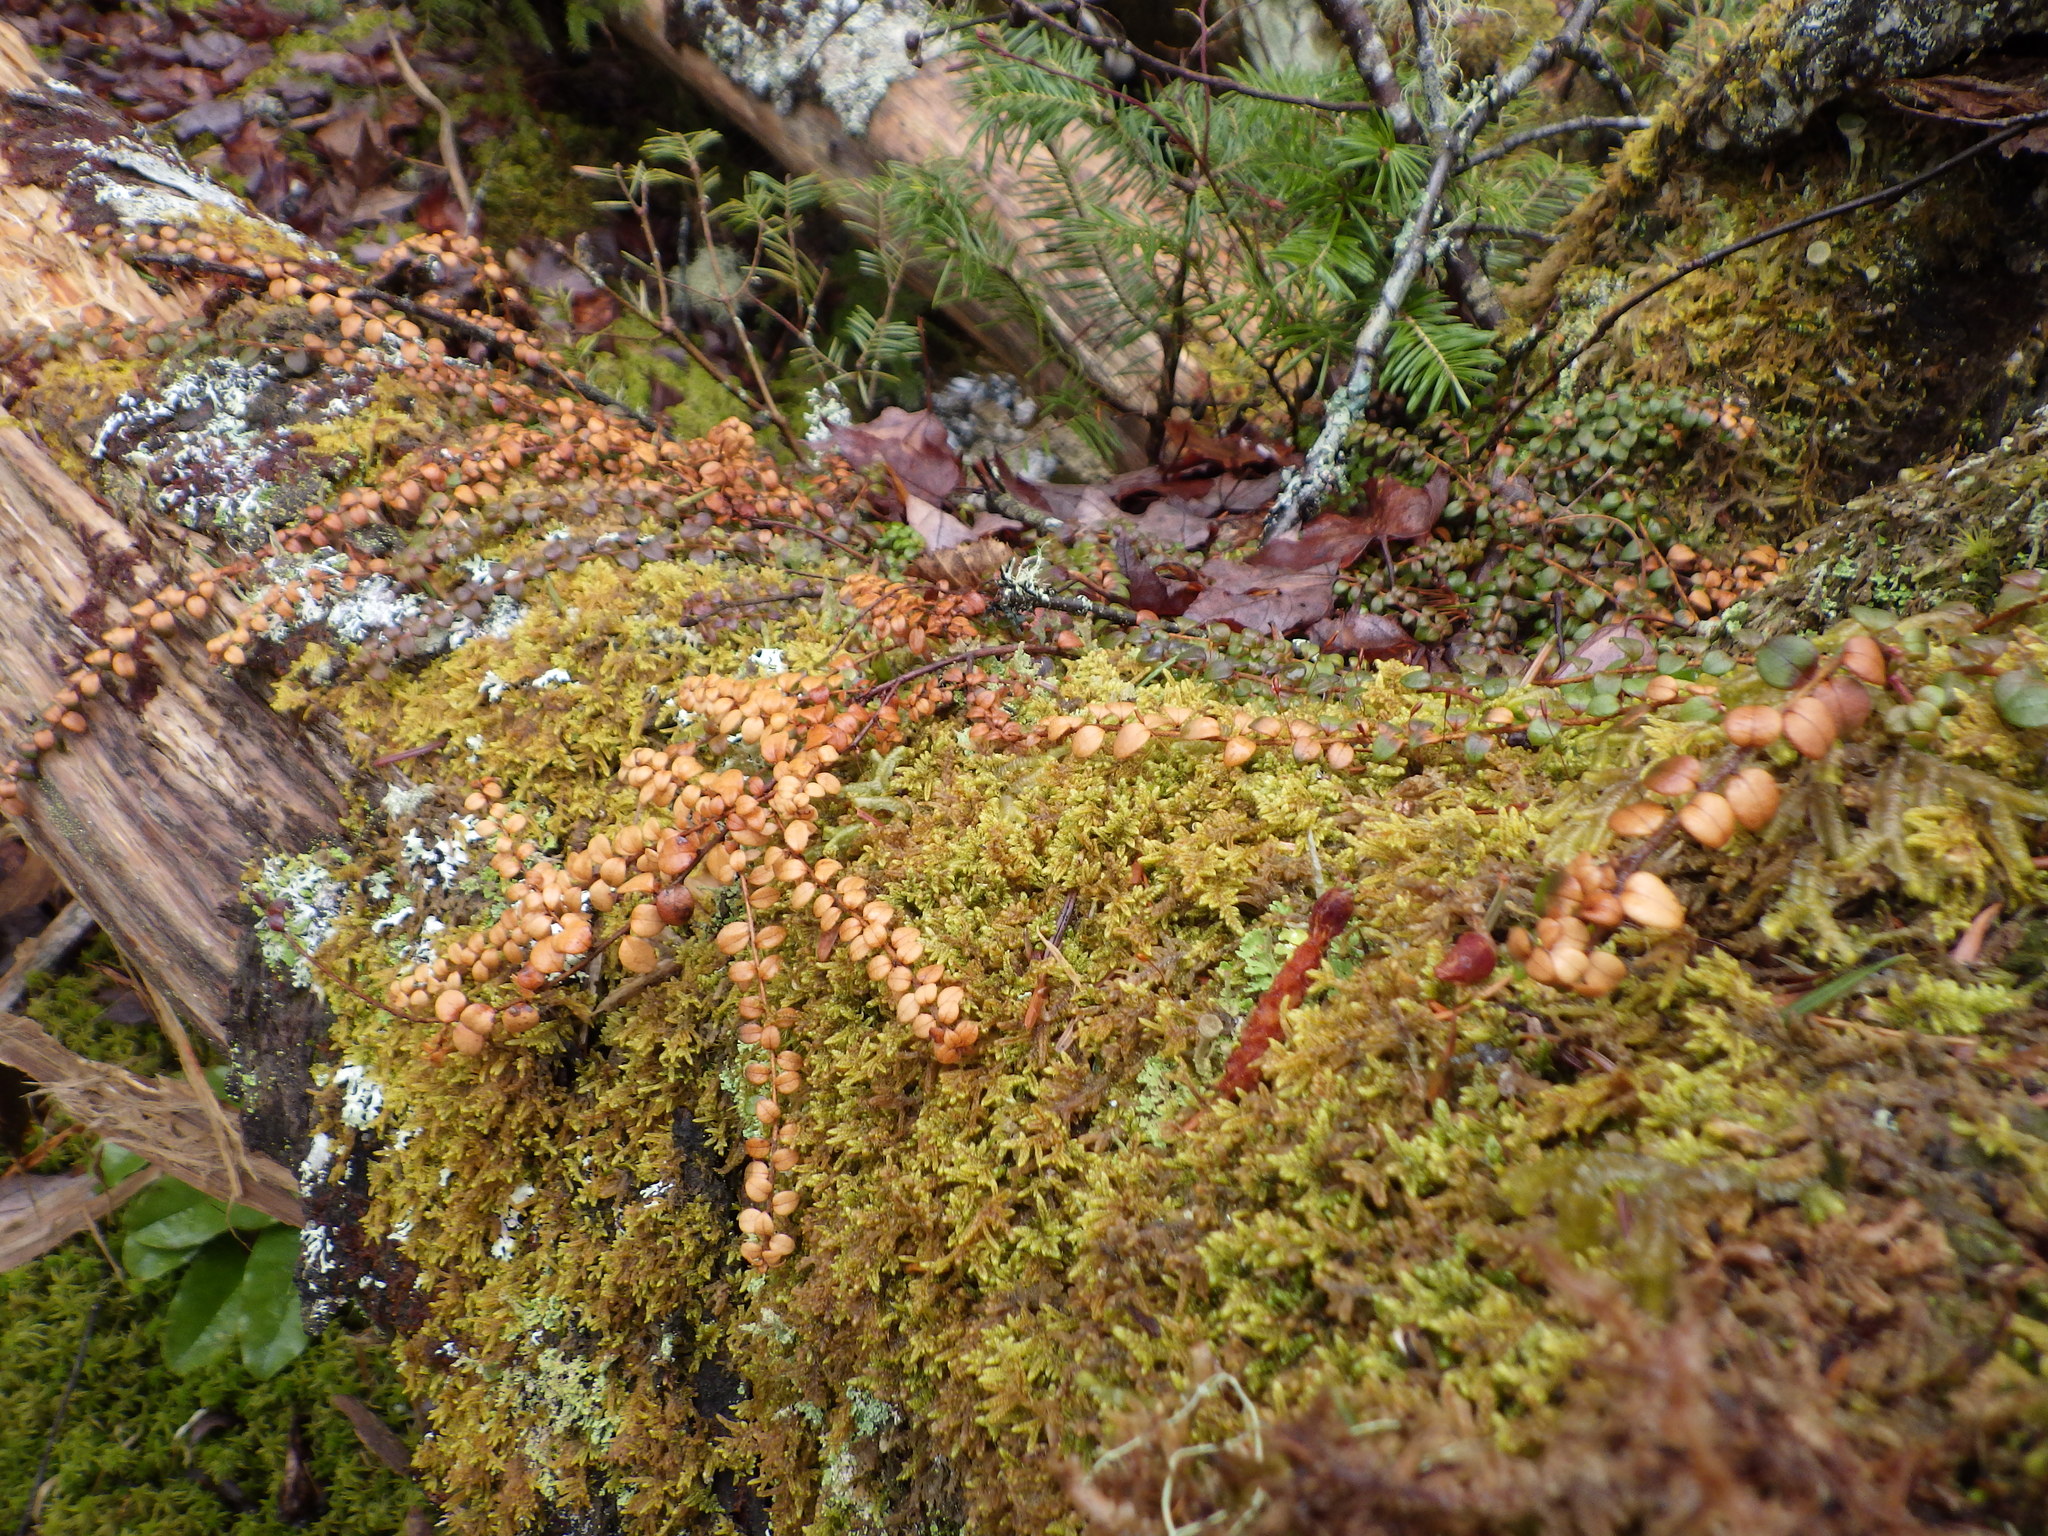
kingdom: Plantae
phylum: Tracheophyta
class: Magnoliopsida
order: Ericales
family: Ericaceae
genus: Gaultheria
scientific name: Gaultheria hispidula
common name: Cancer wintergreen
